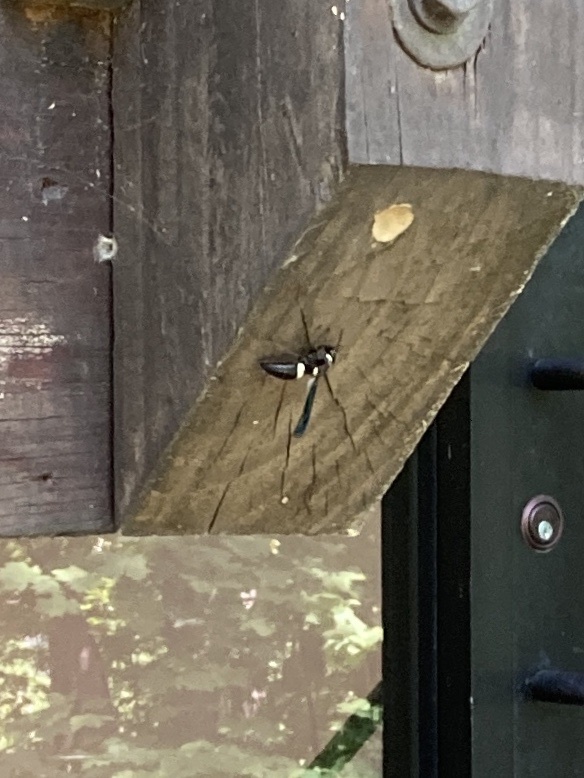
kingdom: Animalia
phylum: Arthropoda
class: Insecta
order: Hymenoptera
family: Eumenidae
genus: Monobia
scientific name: Monobia quadridens
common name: Four-toothed mason wasp
